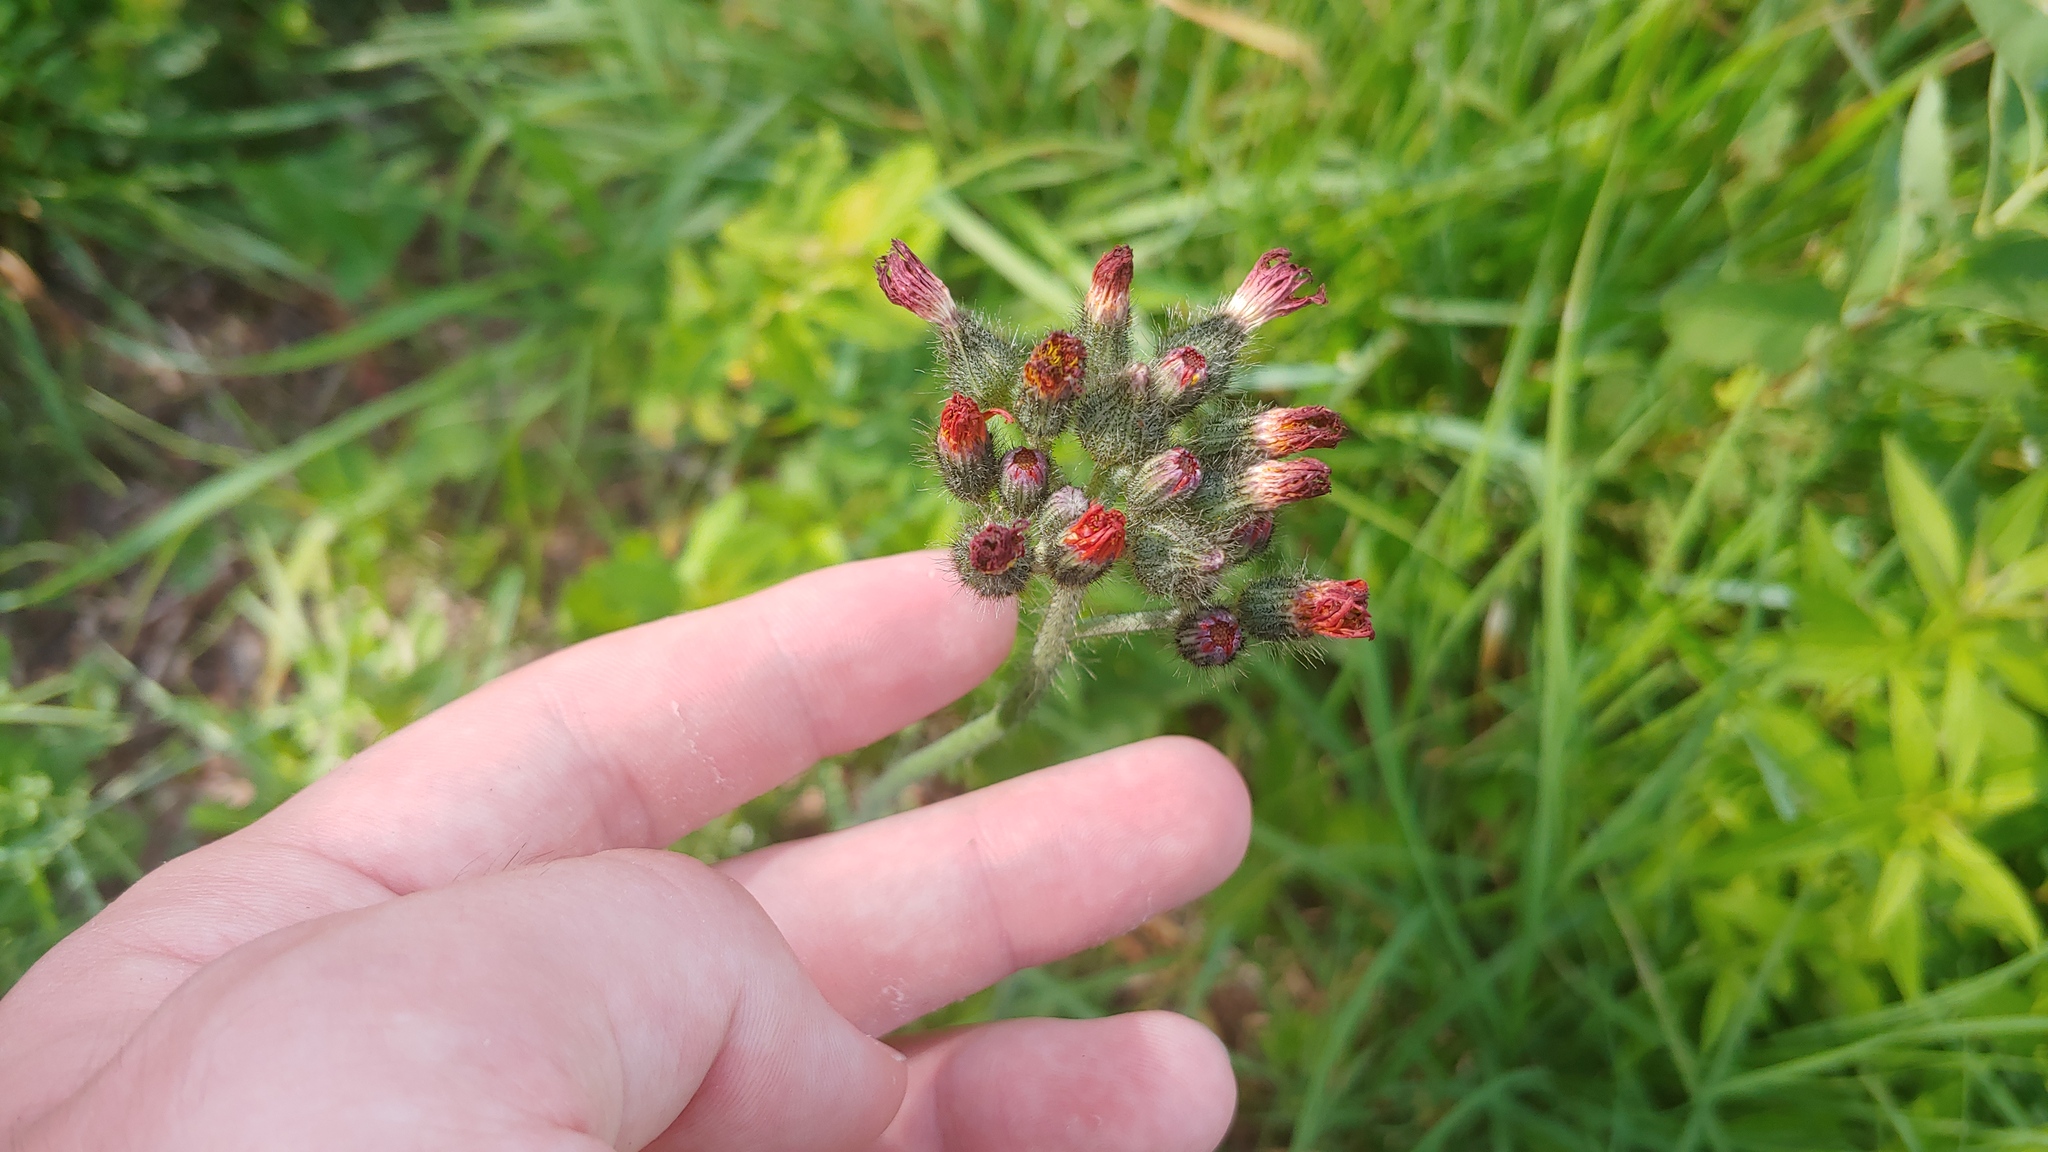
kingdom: Plantae
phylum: Tracheophyta
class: Magnoliopsida
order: Asterales
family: Asteraceae
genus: Pilosella
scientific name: Pilosella aurantiaca
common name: Fox-and-cubs
